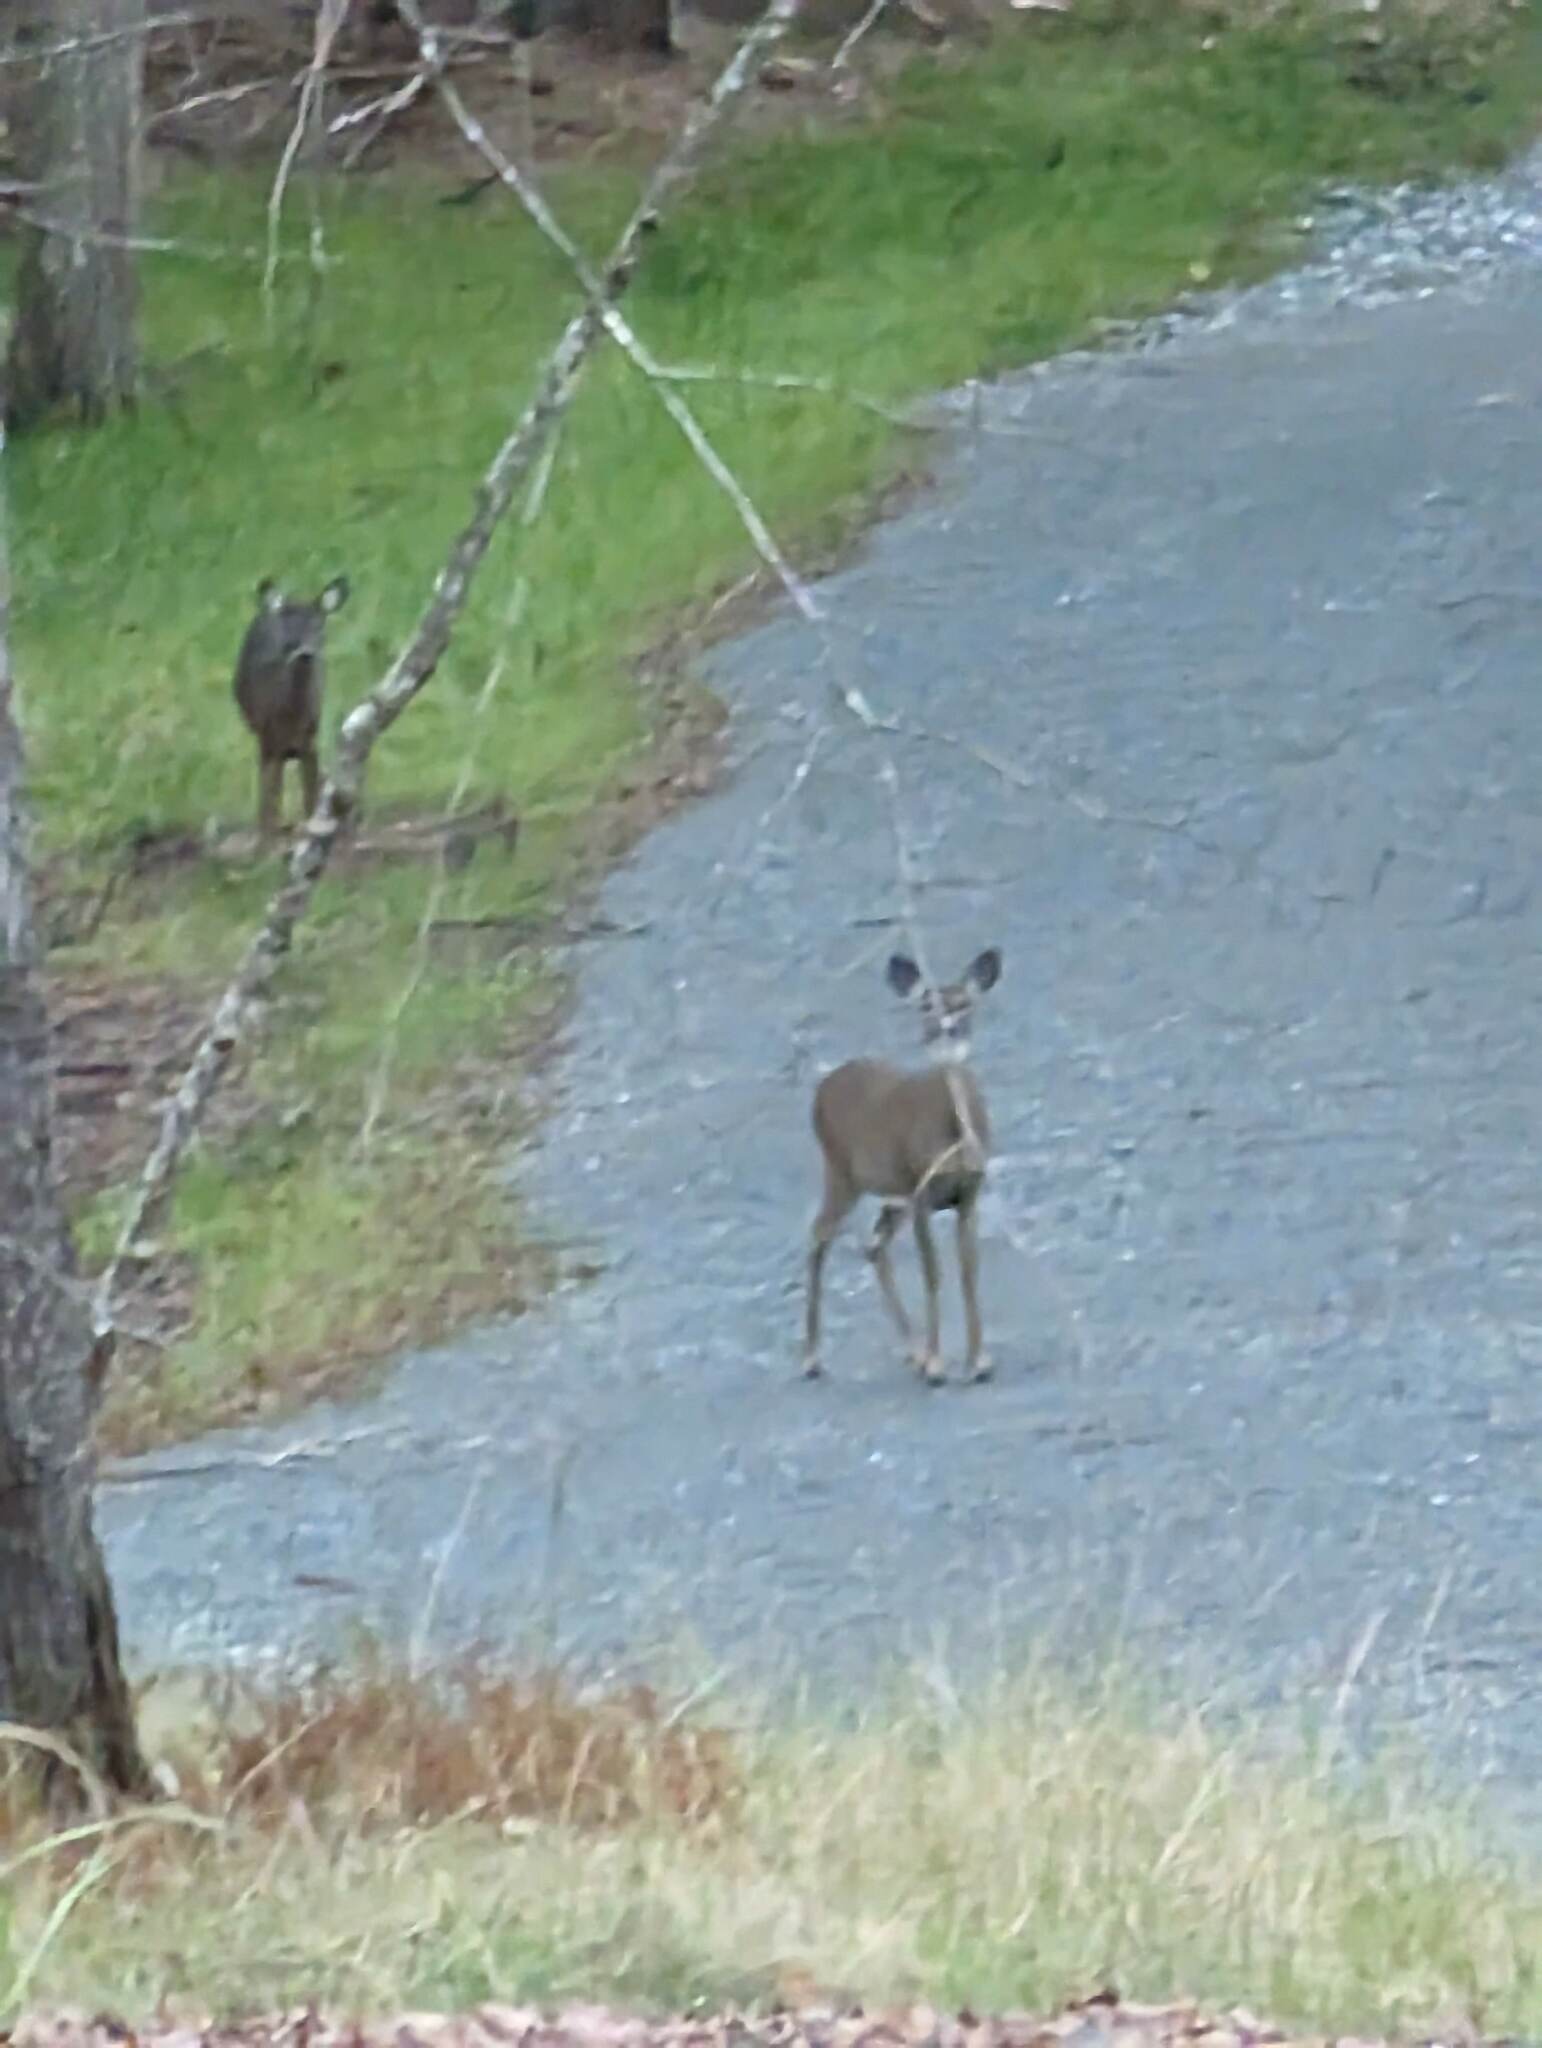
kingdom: Animalia
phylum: Chordata
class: Mammalia
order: Artiodactyla
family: Cervidae
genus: Odocoileus
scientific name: Odocoileus virginianus
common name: White-tailed deer
